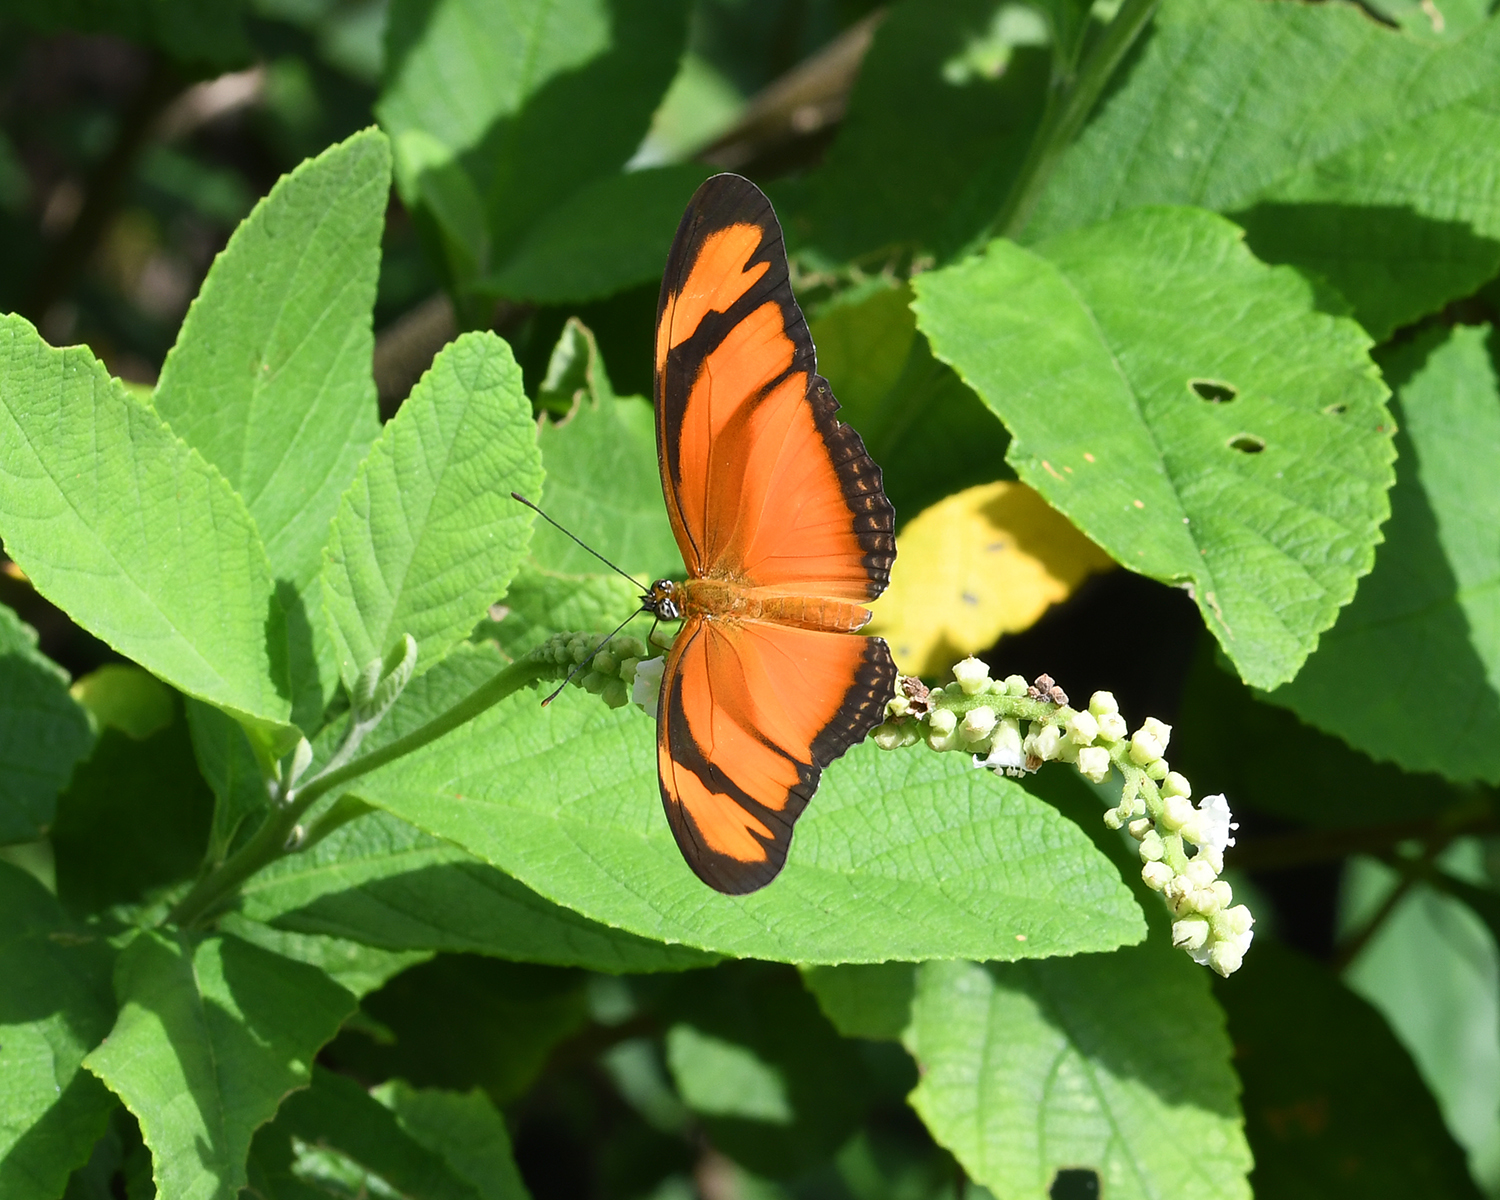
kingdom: Animalia
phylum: Arthropoda
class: Insecta
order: Lepidoptera
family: Nymphalidae
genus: Dryas
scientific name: Dryas iulia
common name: Flambeau
